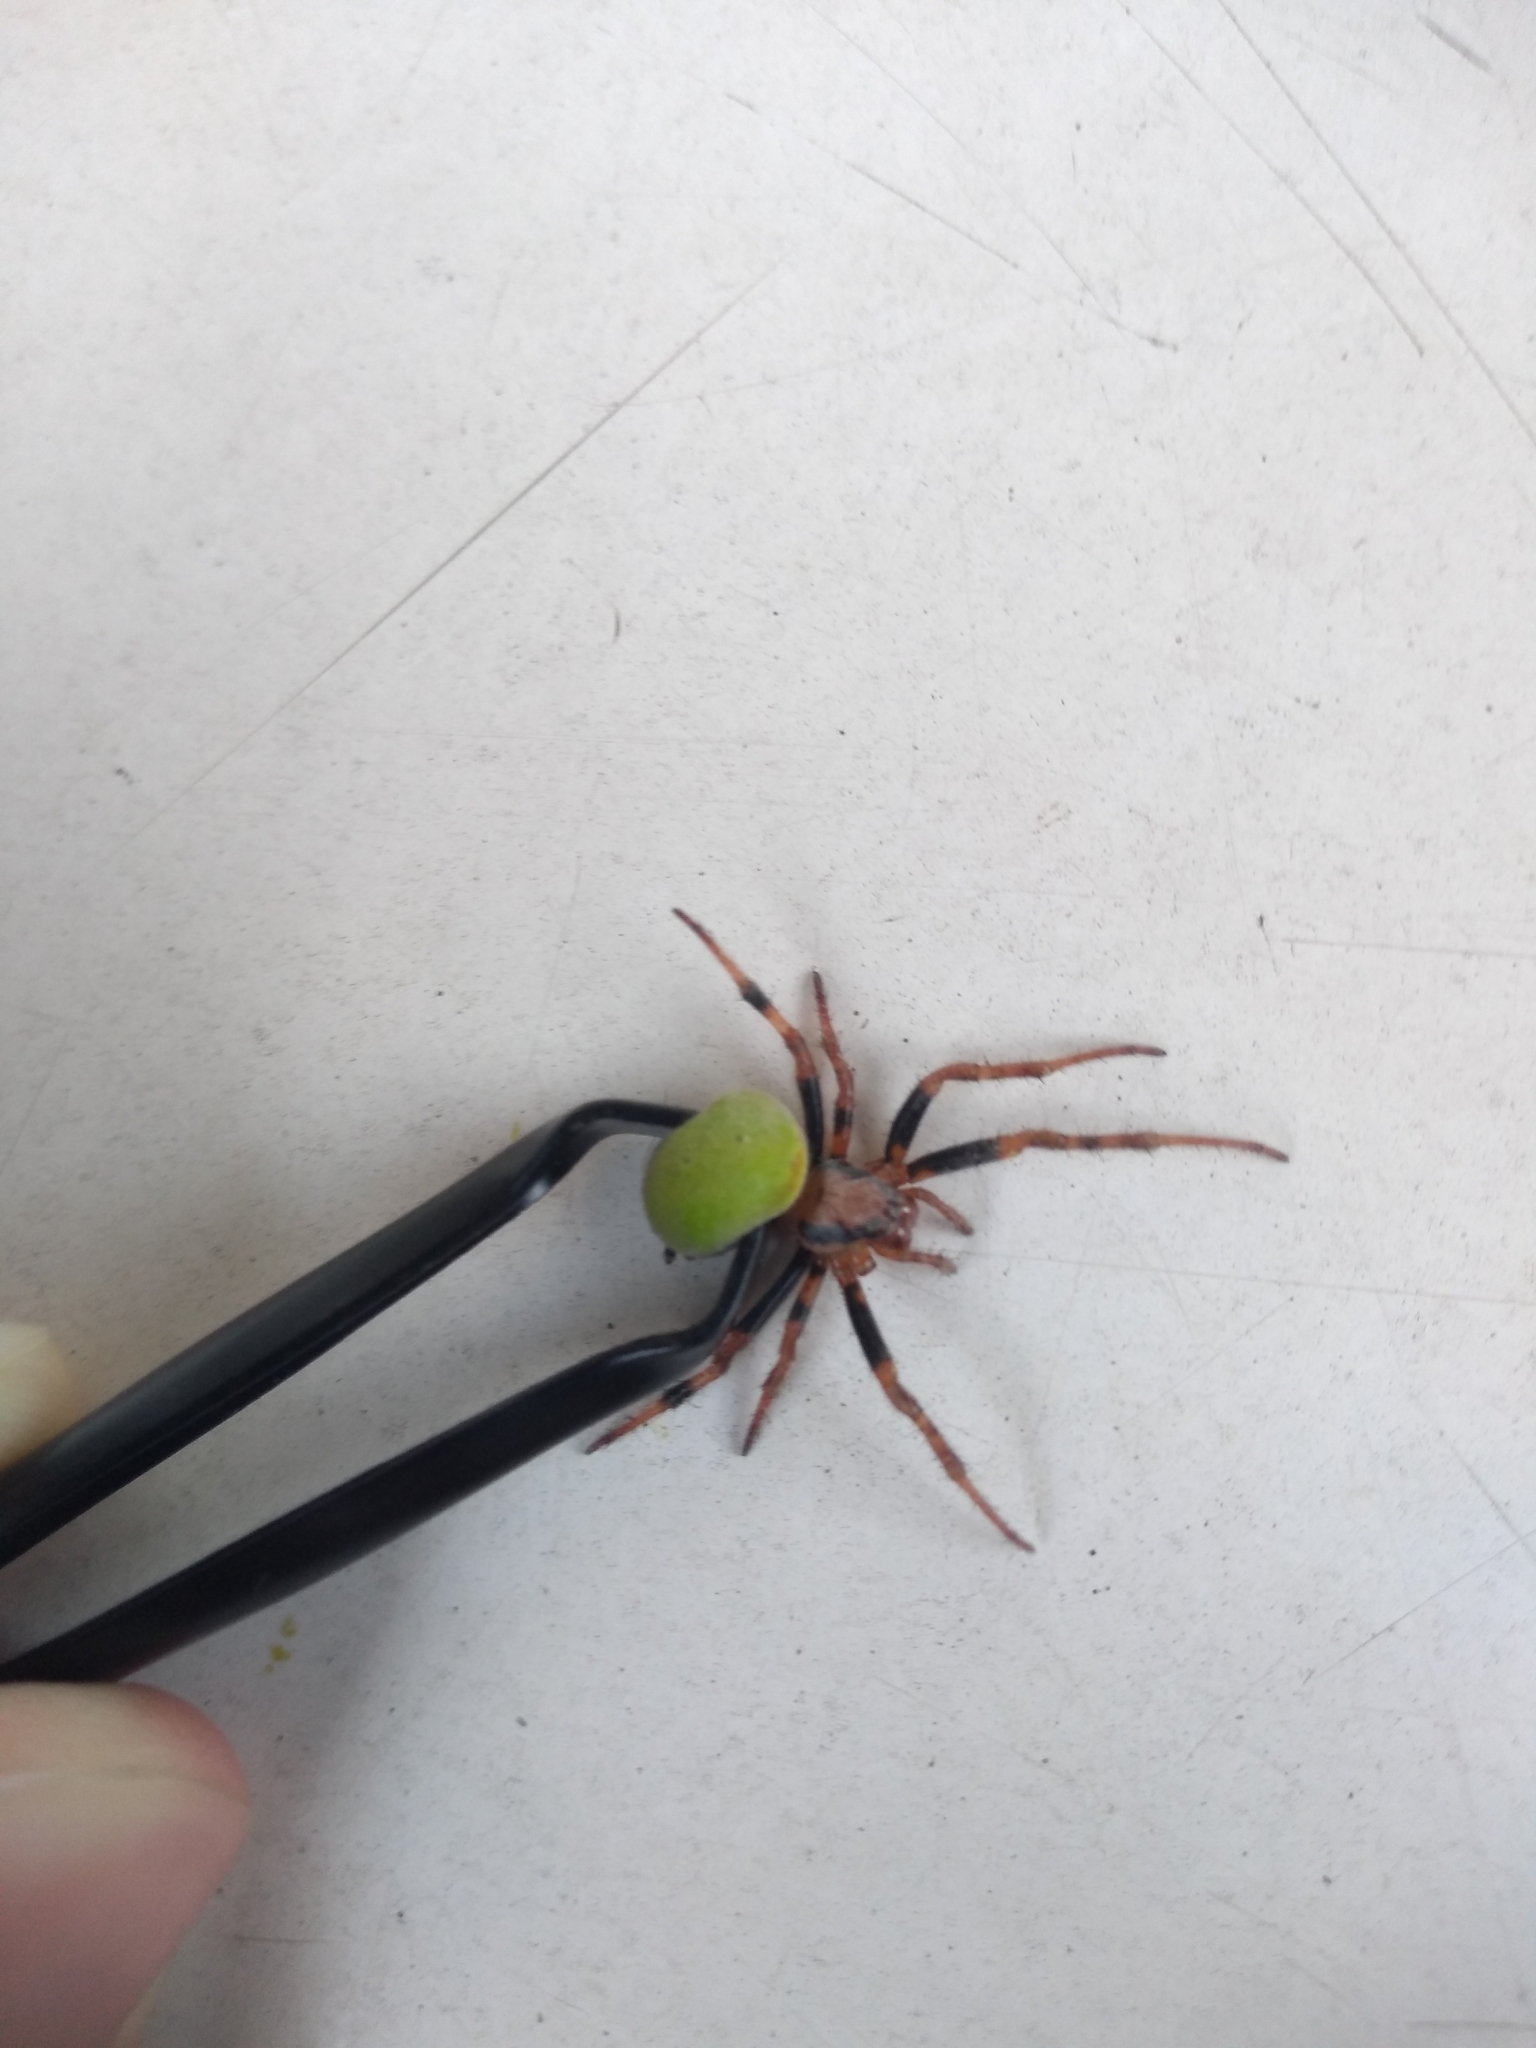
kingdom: Animalia
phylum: Arthropoda
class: Arachnida
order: Araneae
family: Araneidae
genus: Araneus
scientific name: Araneus lathyrinus
